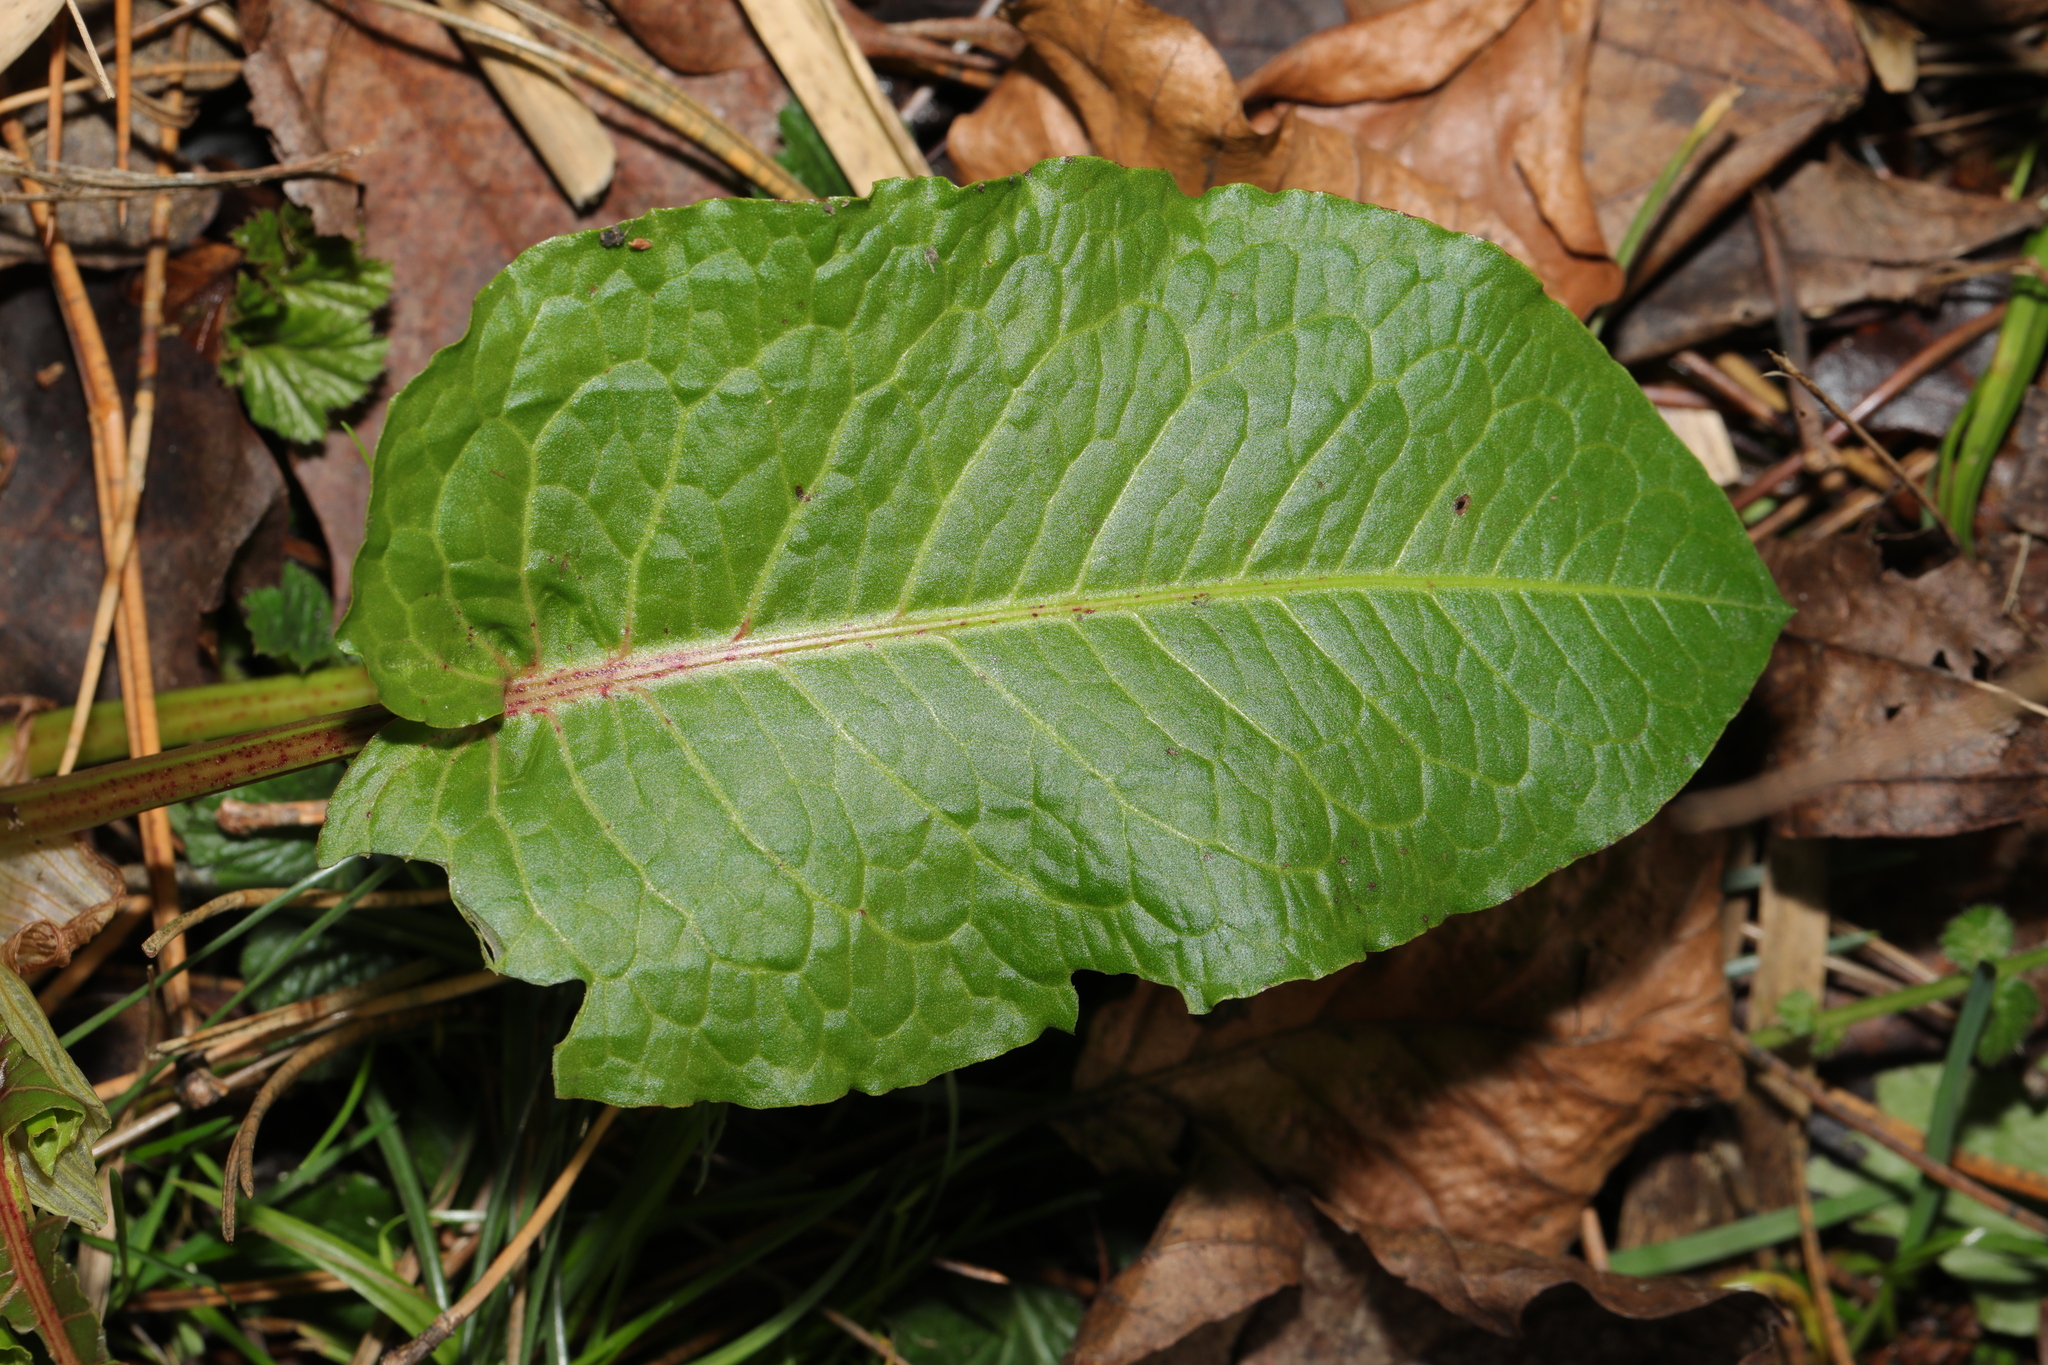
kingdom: Plantae
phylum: Tracheophyta
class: Magnoliopsida
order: Caryophyllales
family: Polygonaceae
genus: Rumex
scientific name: Rumex obtusifolius
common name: Bitter dock
